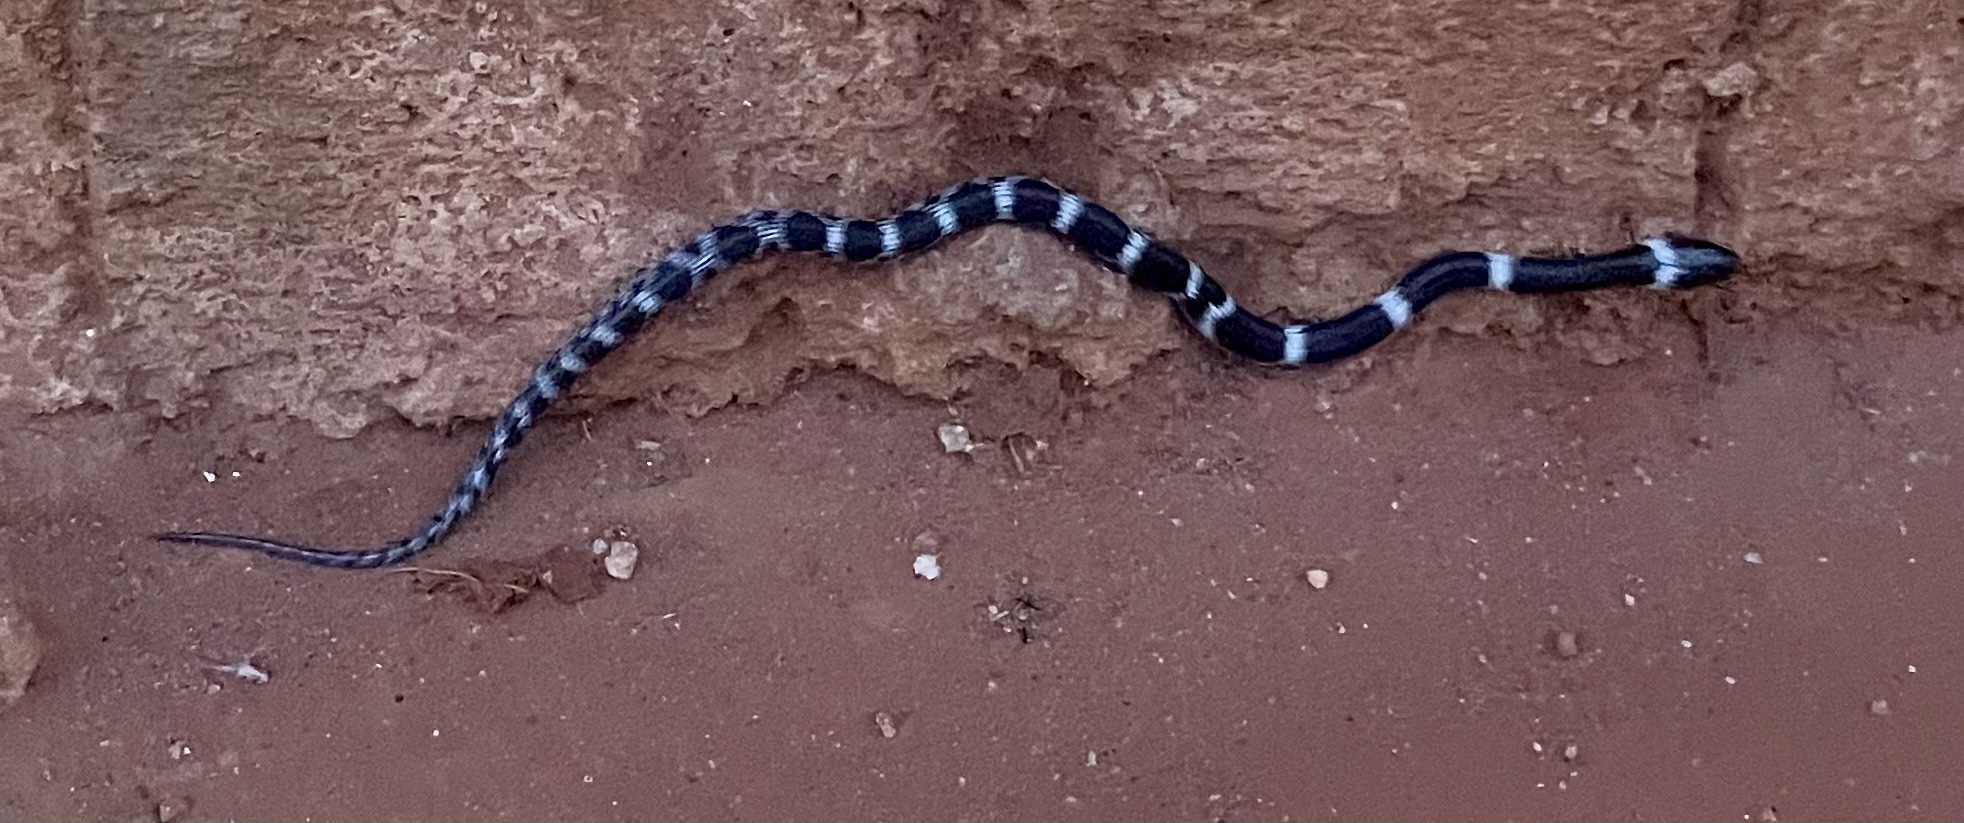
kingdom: Animalia
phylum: Chordata
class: Squamata
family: Colubridae
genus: Lycodon
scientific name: Lycodon aulicus
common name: Common wolf snake
